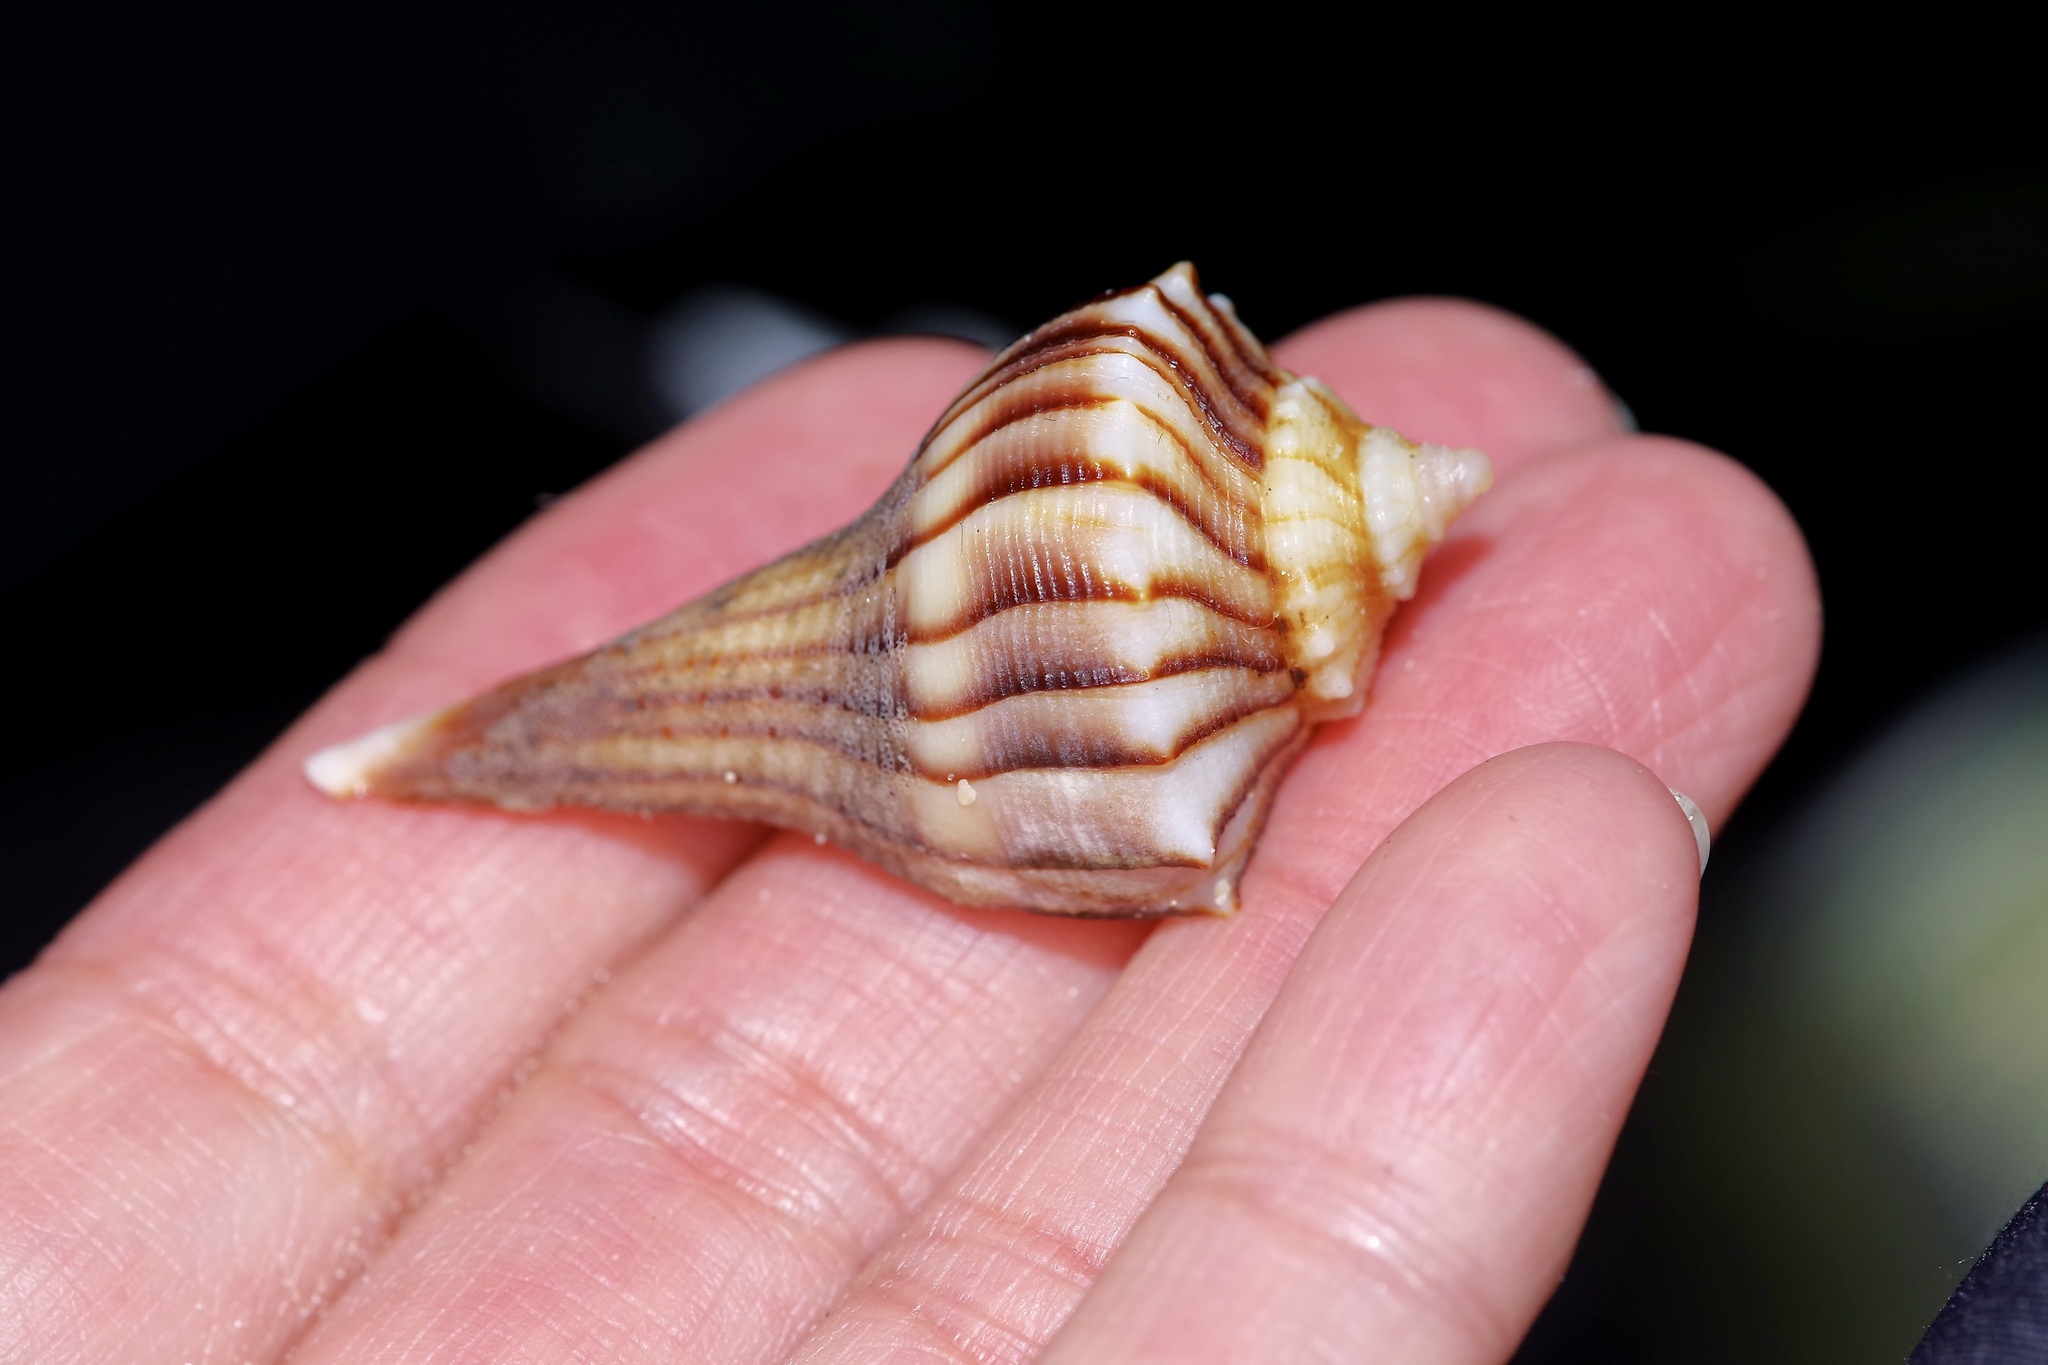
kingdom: Animalia
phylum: Mollusca
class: Gastropoda
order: Neogastropoda
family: Busyconidae
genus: Sinistrofulgur
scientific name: Sinistrofulgur pulleyi
